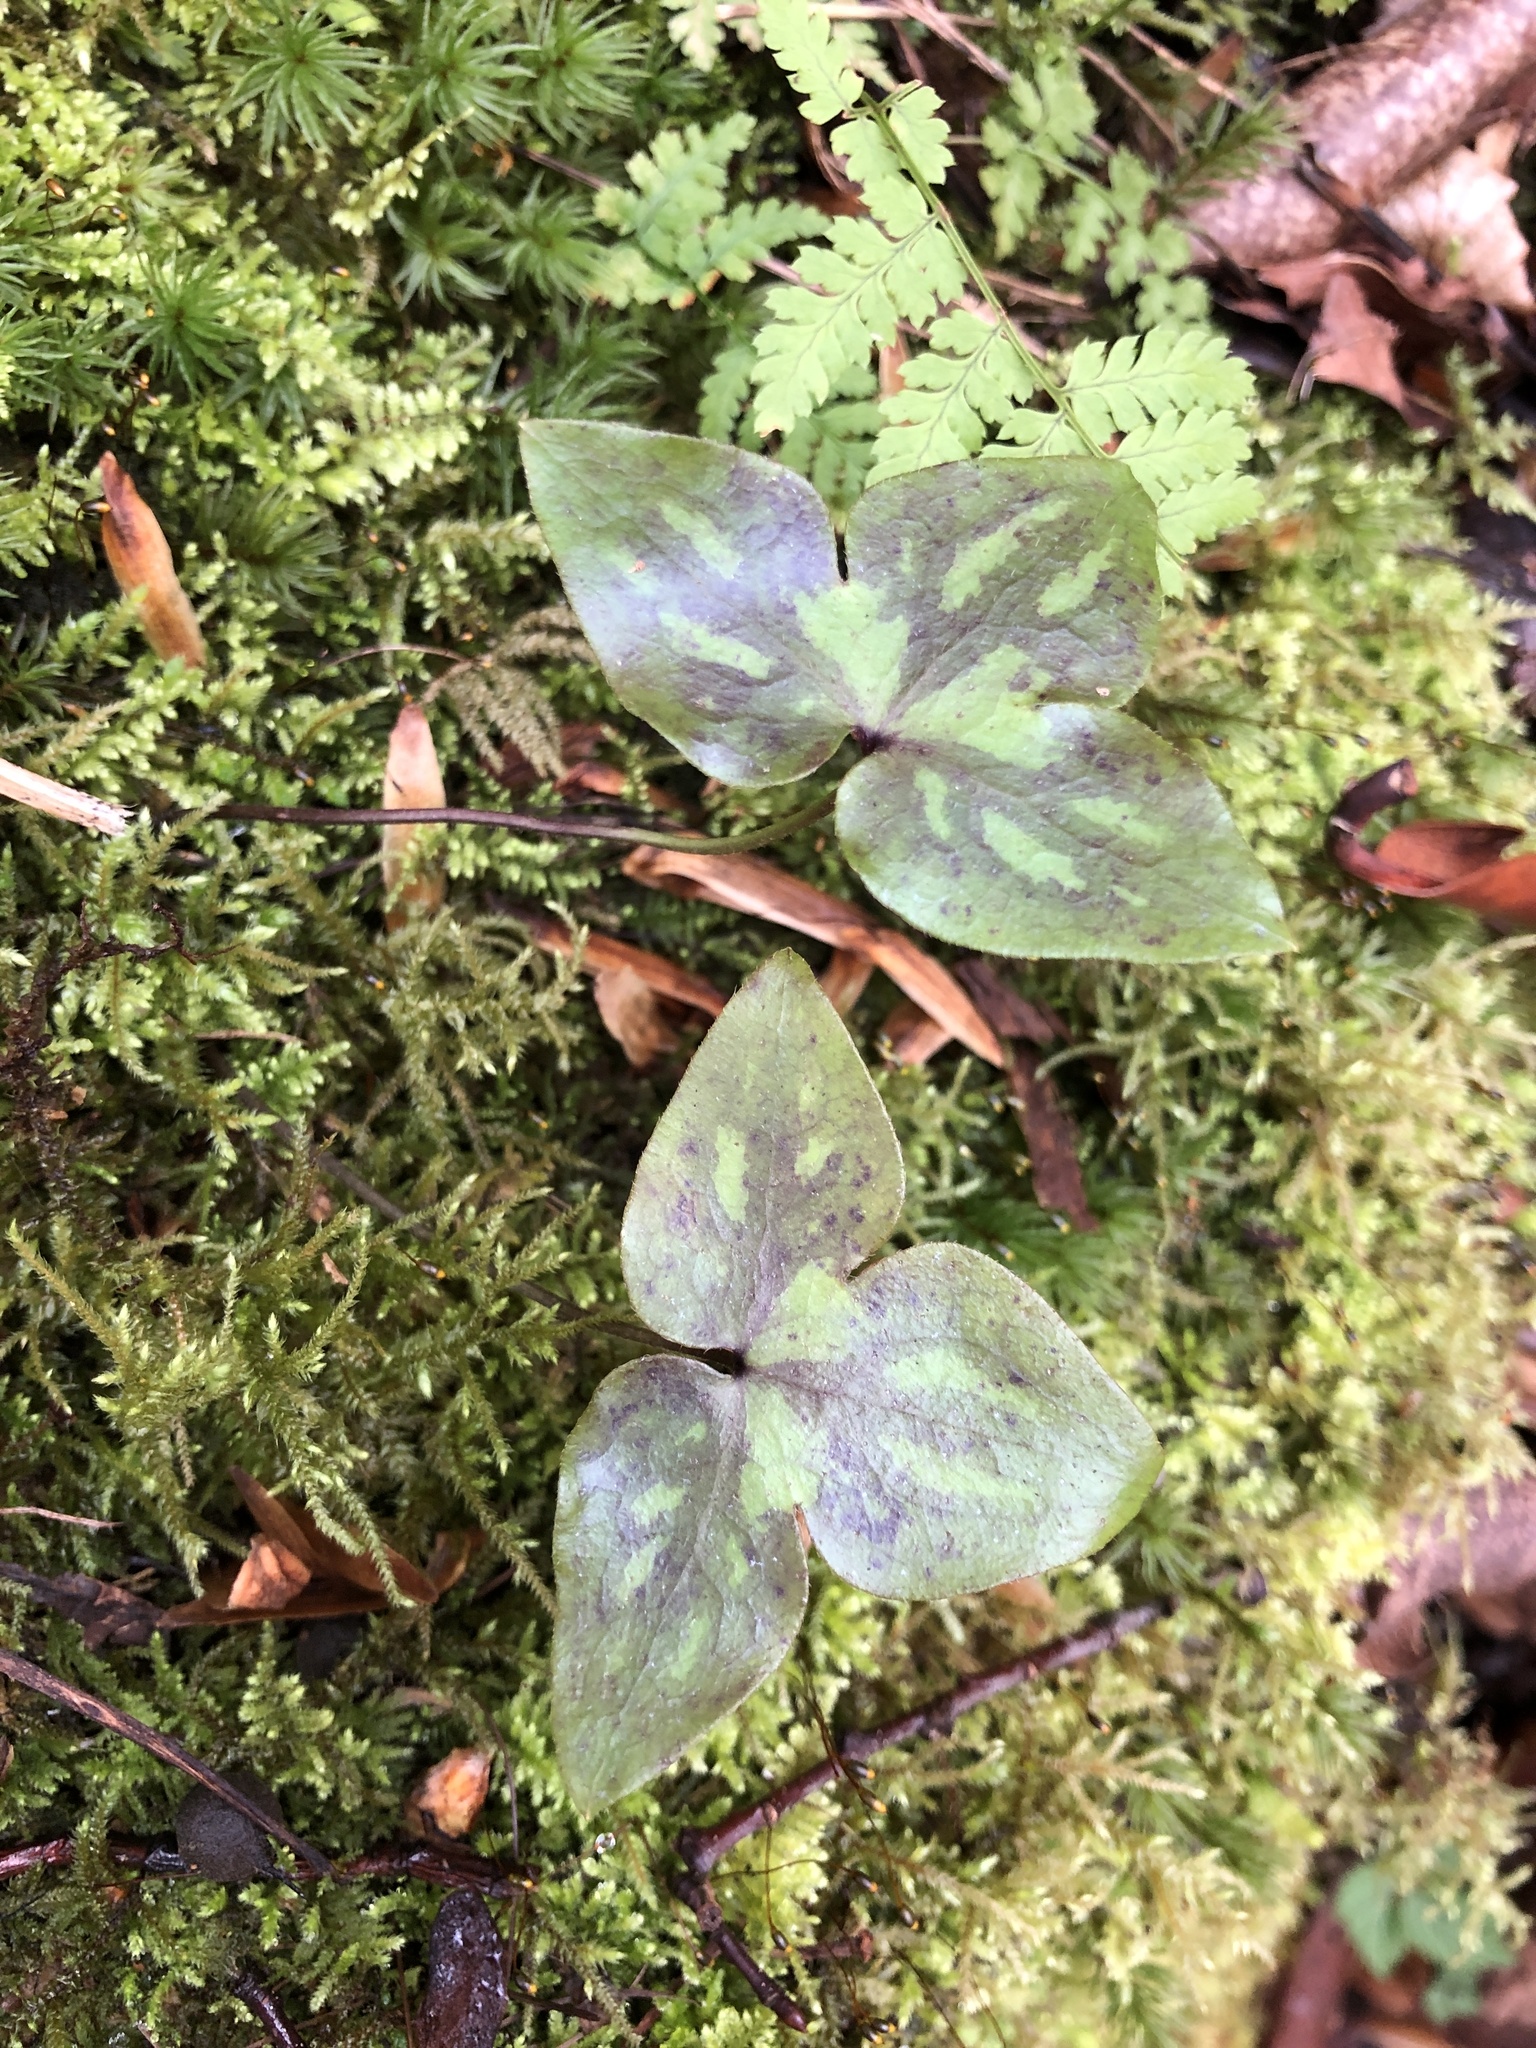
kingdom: Plantae
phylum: Tracheophyta
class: Magnoliopsida
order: Ranunculales
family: Ranunculaceae
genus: Hepatica
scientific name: Hepatica acutiloba
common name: Sharp-lobed hepatica
